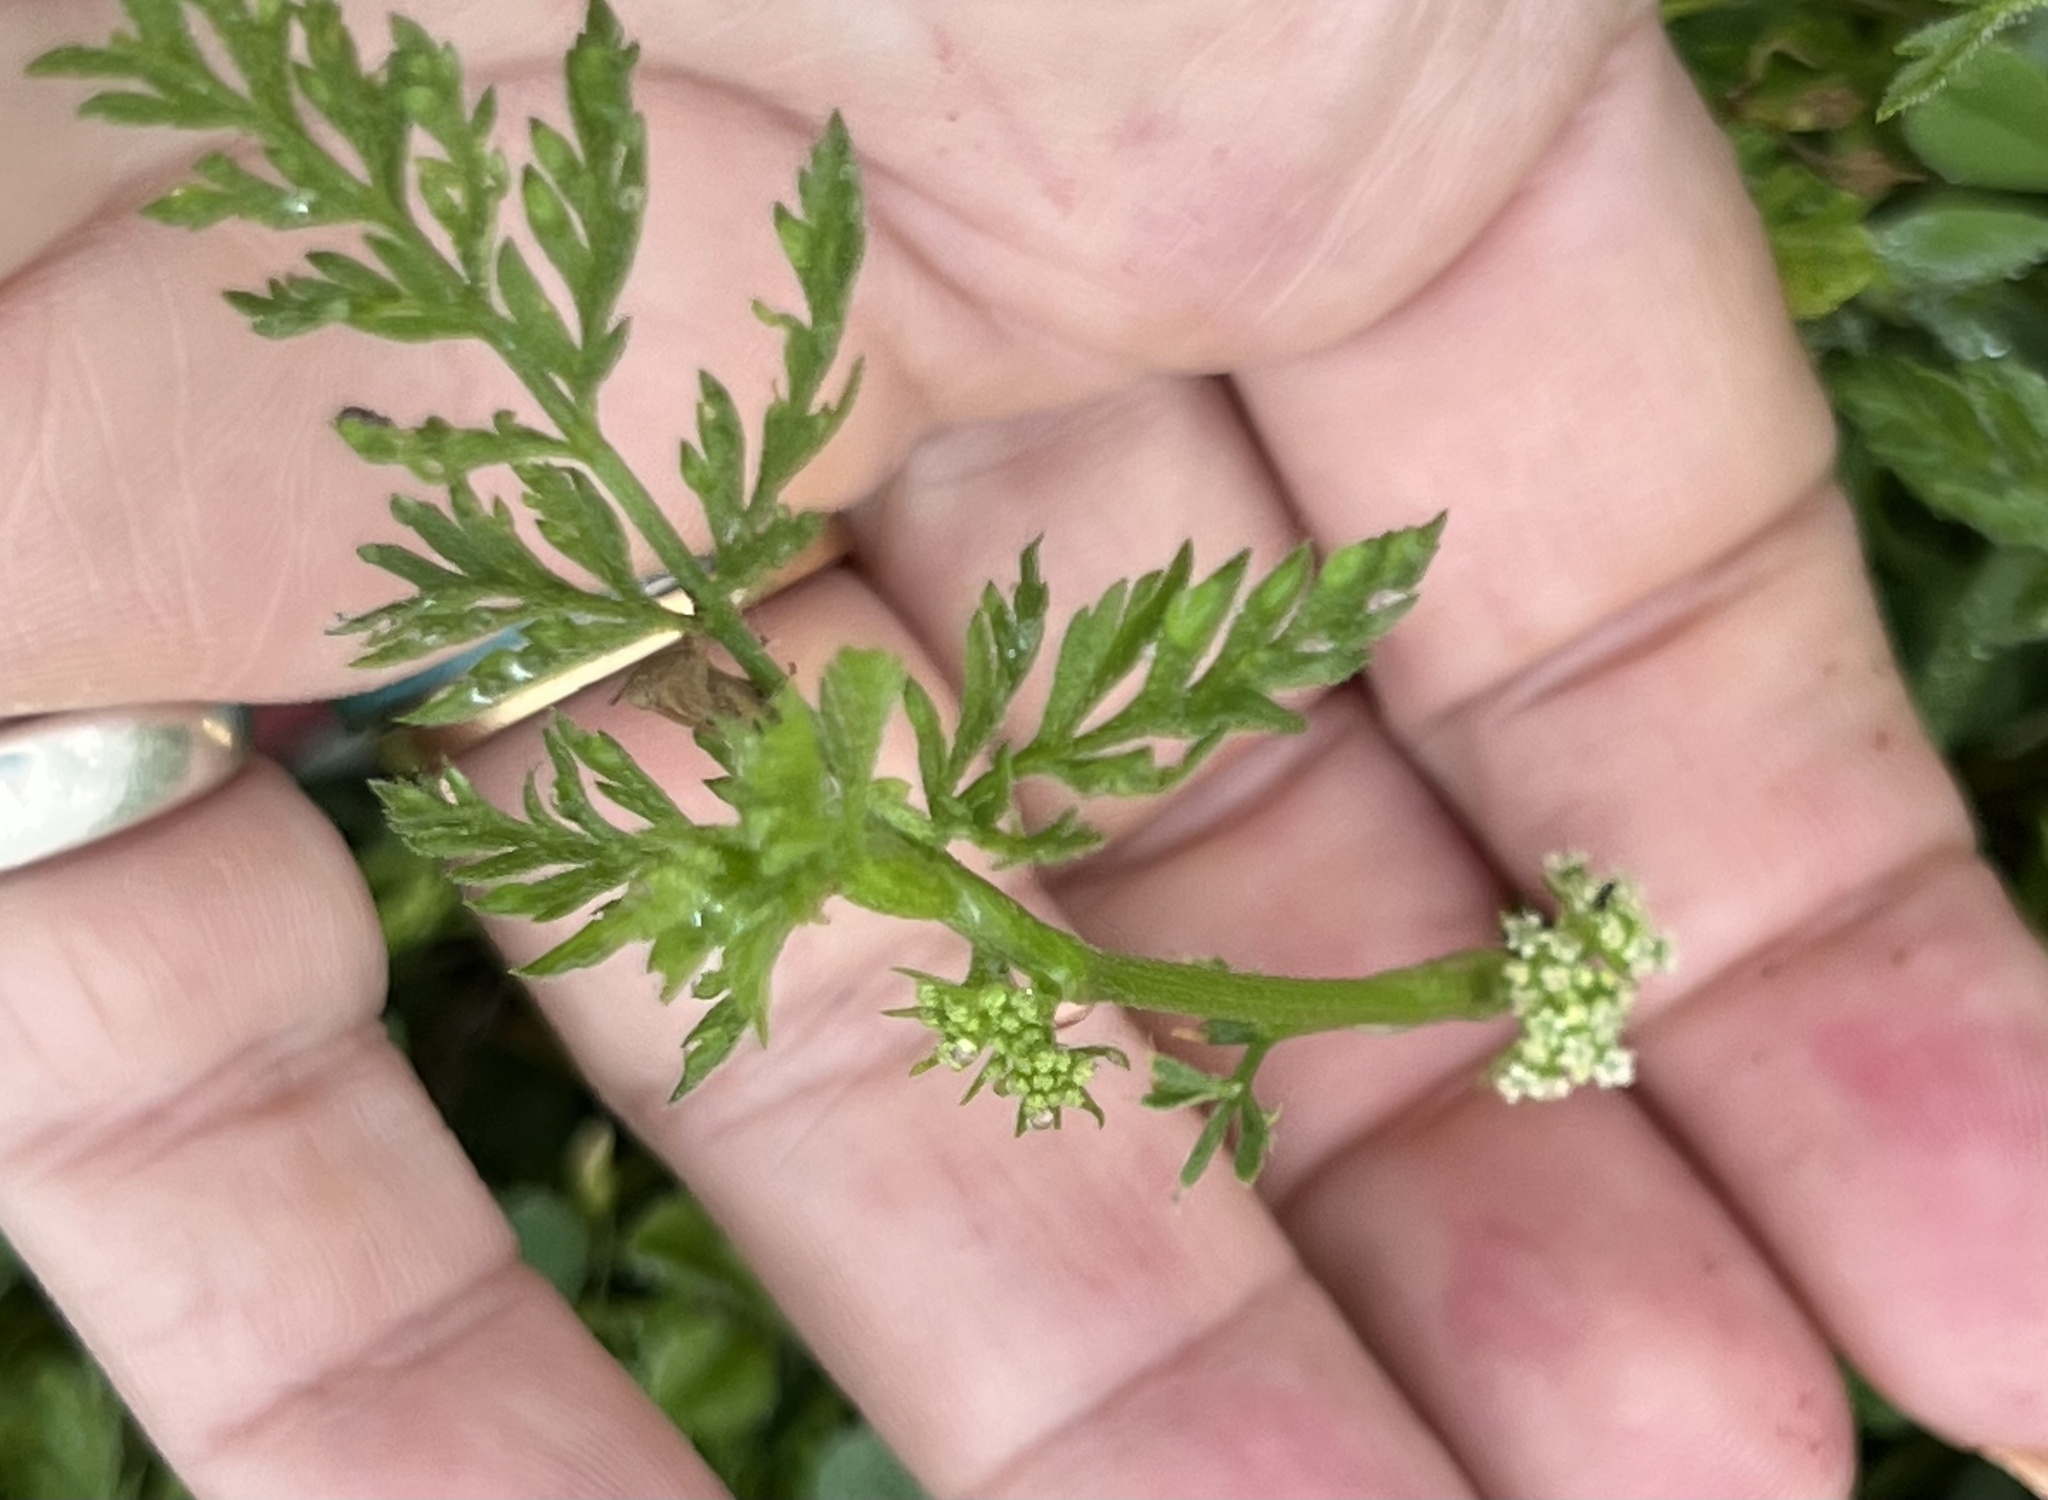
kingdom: Plantae
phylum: Tracheophyta
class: Magnoliopsida
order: Apiales
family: Apiaceae
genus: Torilis
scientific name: Torilis nodosa
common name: Knotted hedge-parsley
